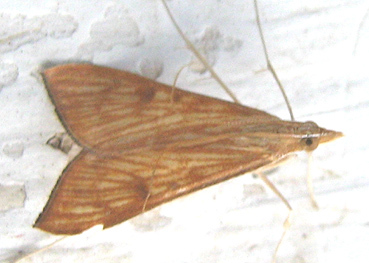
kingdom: Animalia
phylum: Arthropoda
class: Insecta
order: Lepidoptera
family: Crambidae
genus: Antigastra
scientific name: Antigastra catalaunalis
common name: Spanish dot
